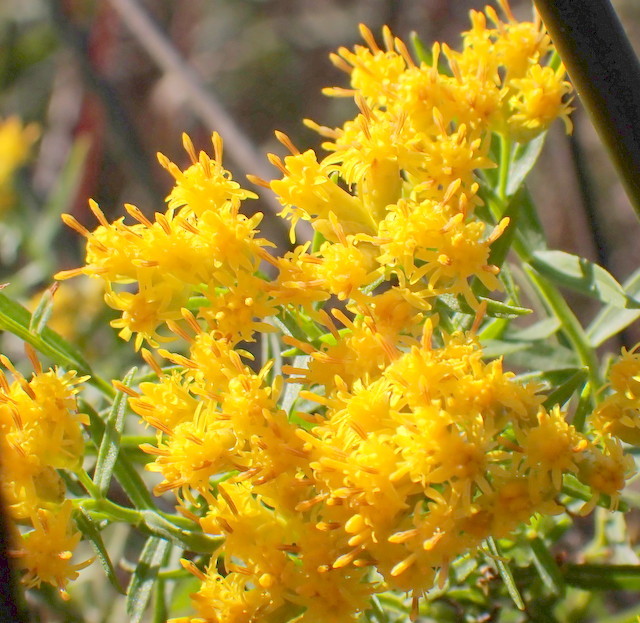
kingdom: Plantae
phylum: Tracheophyta
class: Magnoliopsida
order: Asterales
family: Asteraceae
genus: Euthamia
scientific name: Euthamia weakleyi
